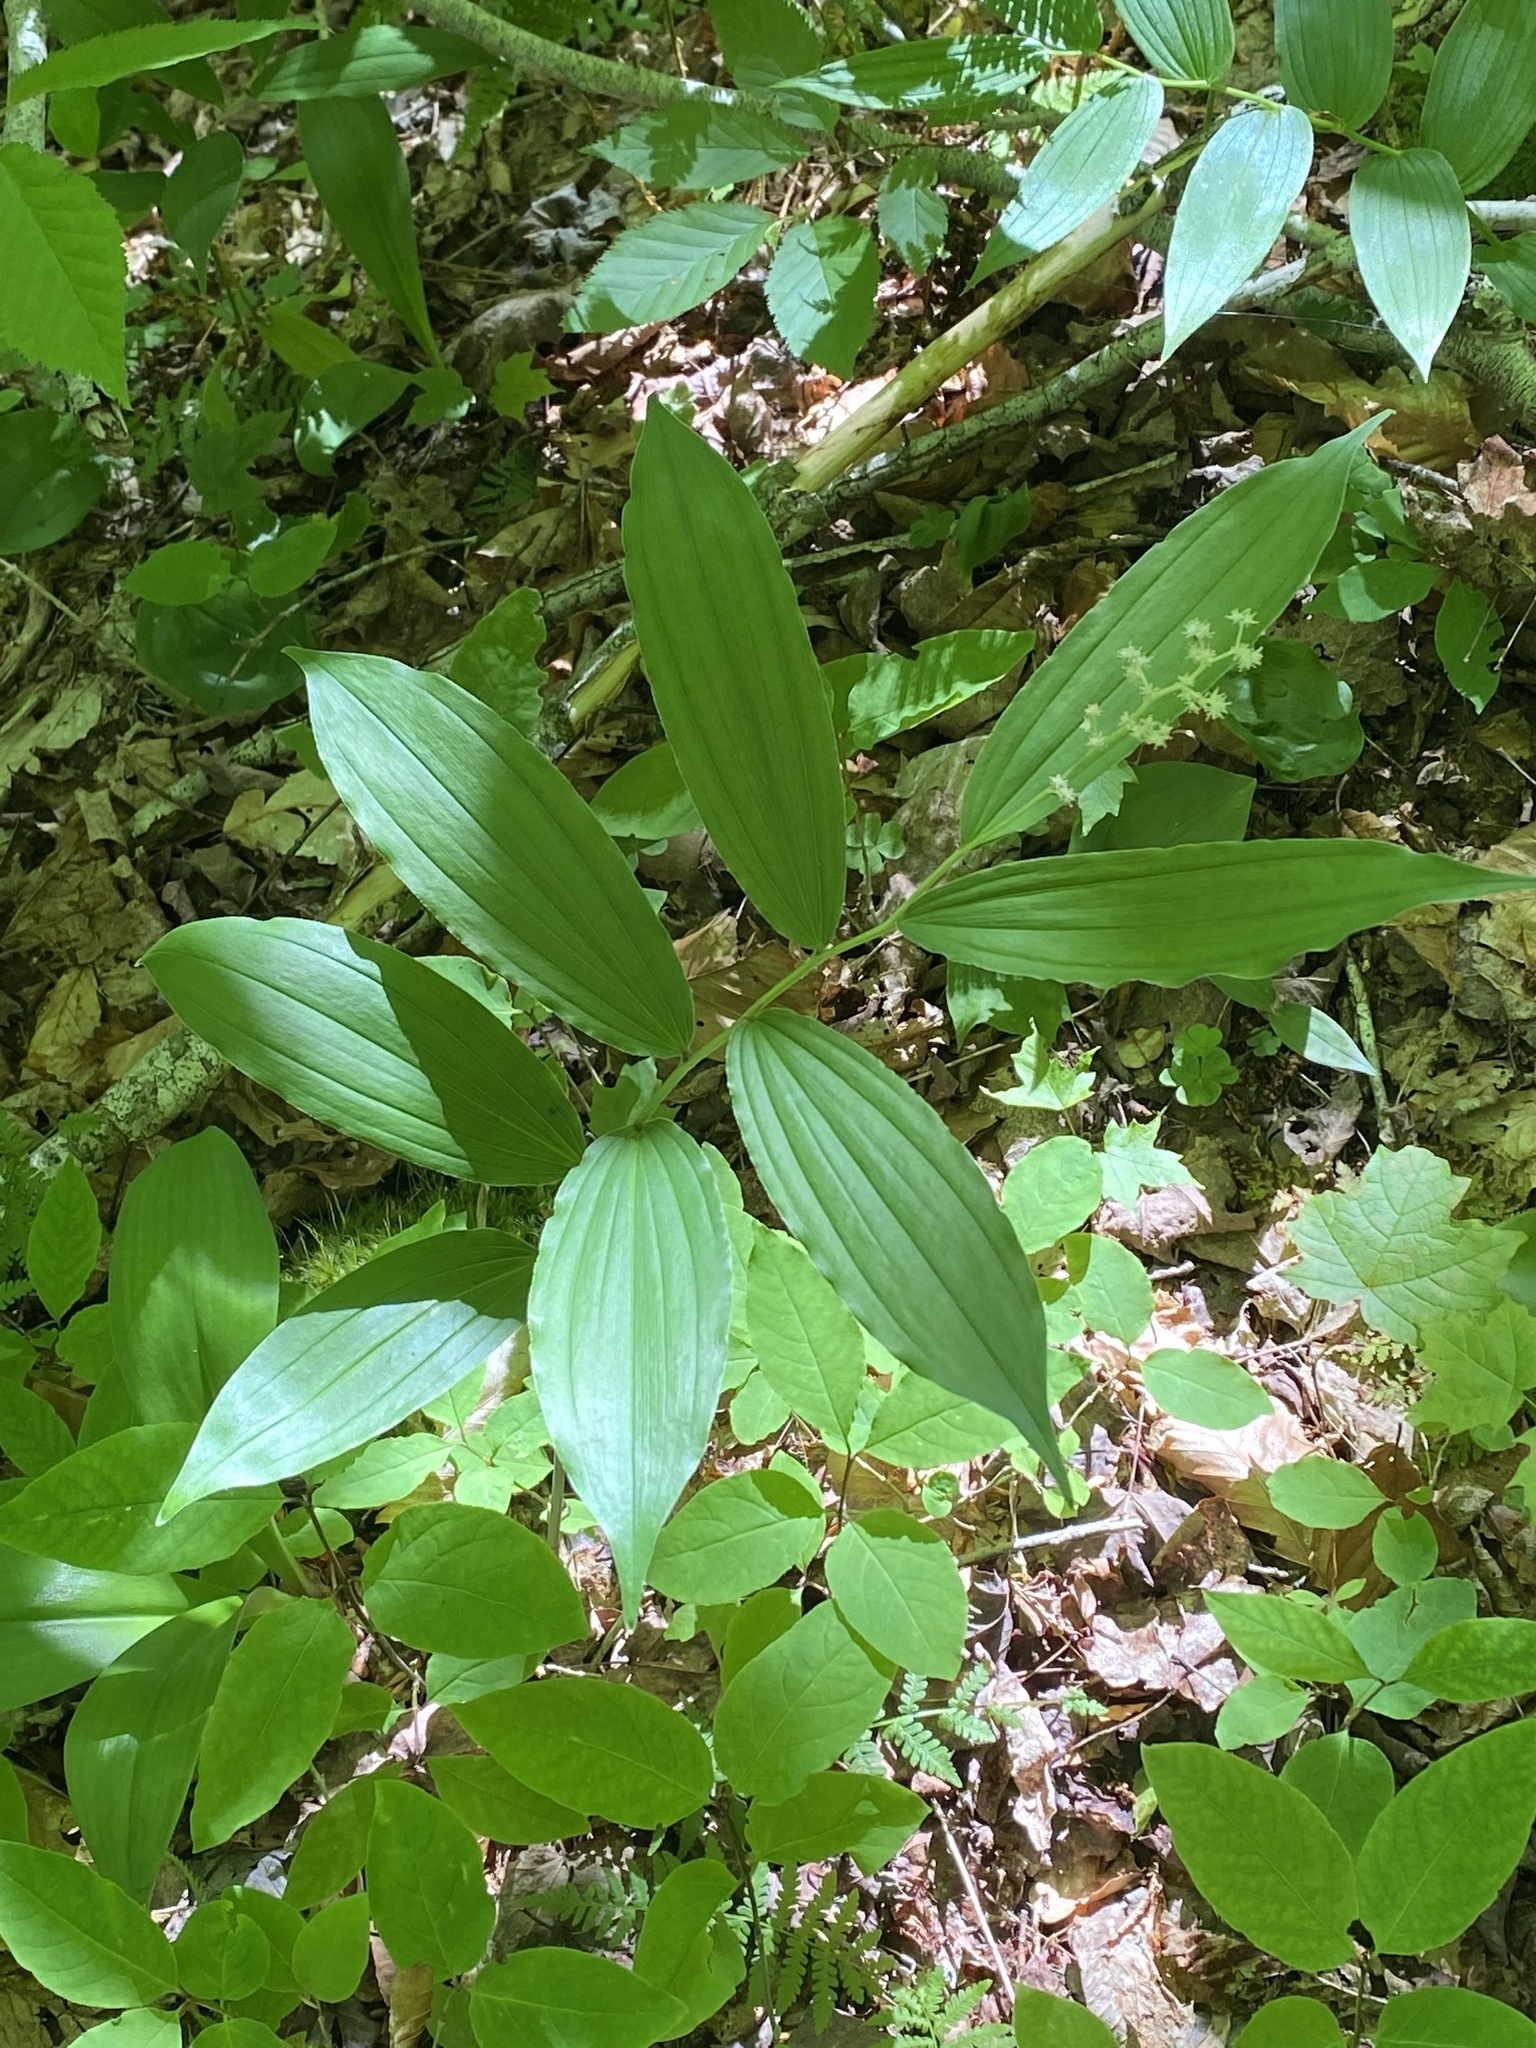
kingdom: Plantae
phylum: Tracheophyta
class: Liliopsida
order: Asparagales
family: Asparagaceae
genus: Maianthemum
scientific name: Maianthemum racemosum
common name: False spikenard
